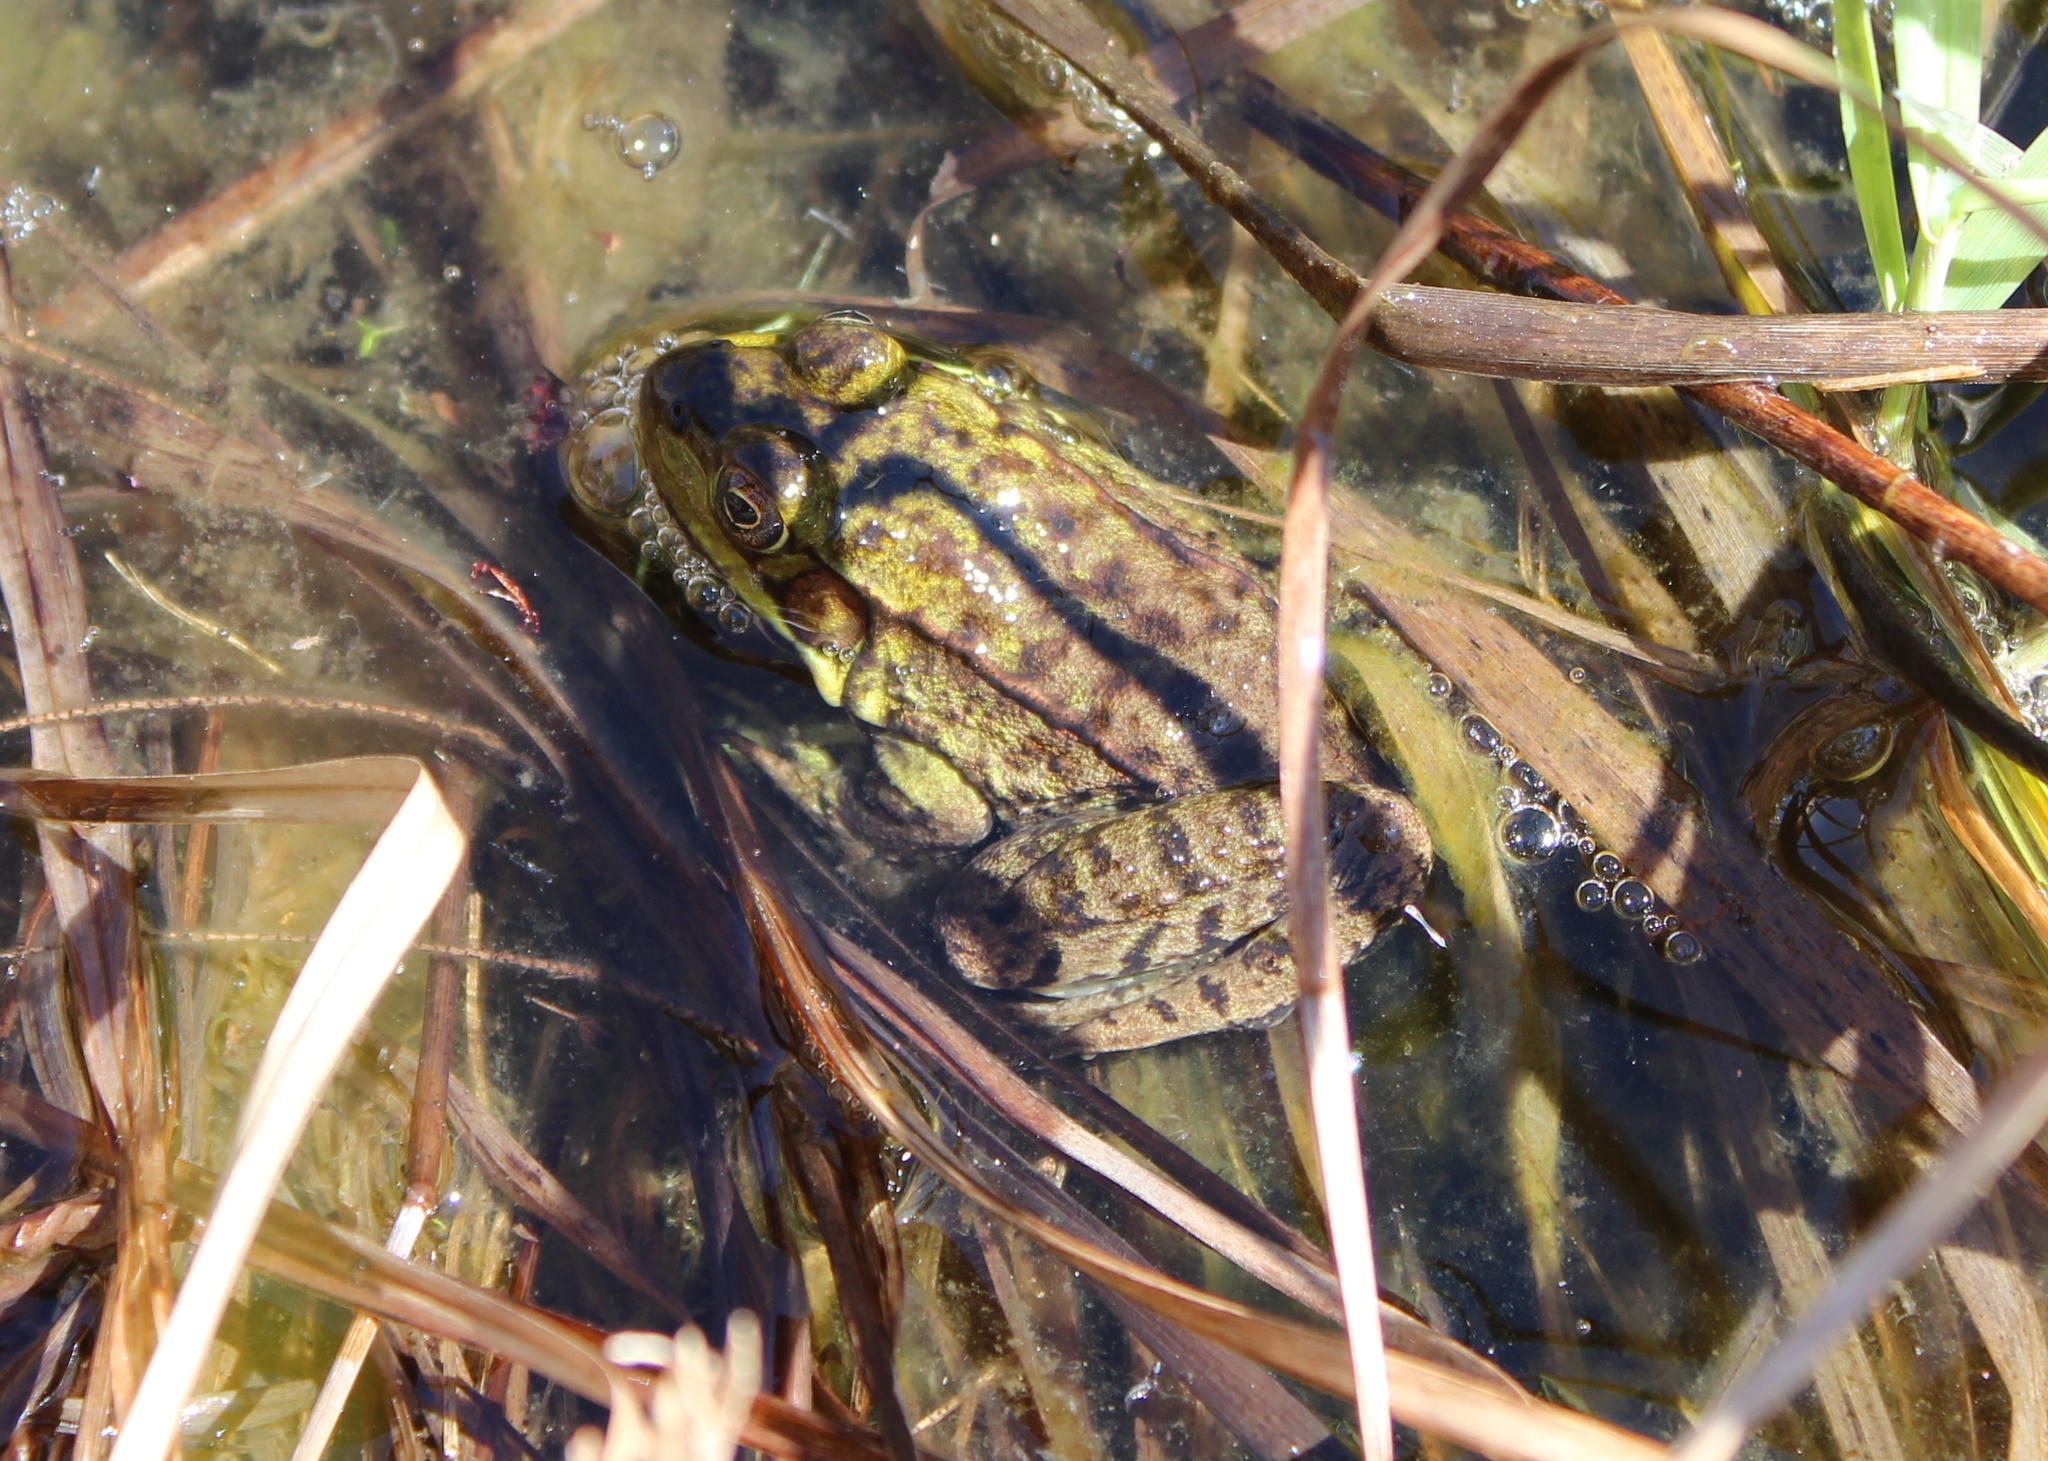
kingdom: Animalia
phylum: Chordata
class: Amphibia
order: Anura
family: Ranidae
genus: Lithobates
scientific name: Lithobates clamitans
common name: Green frog
